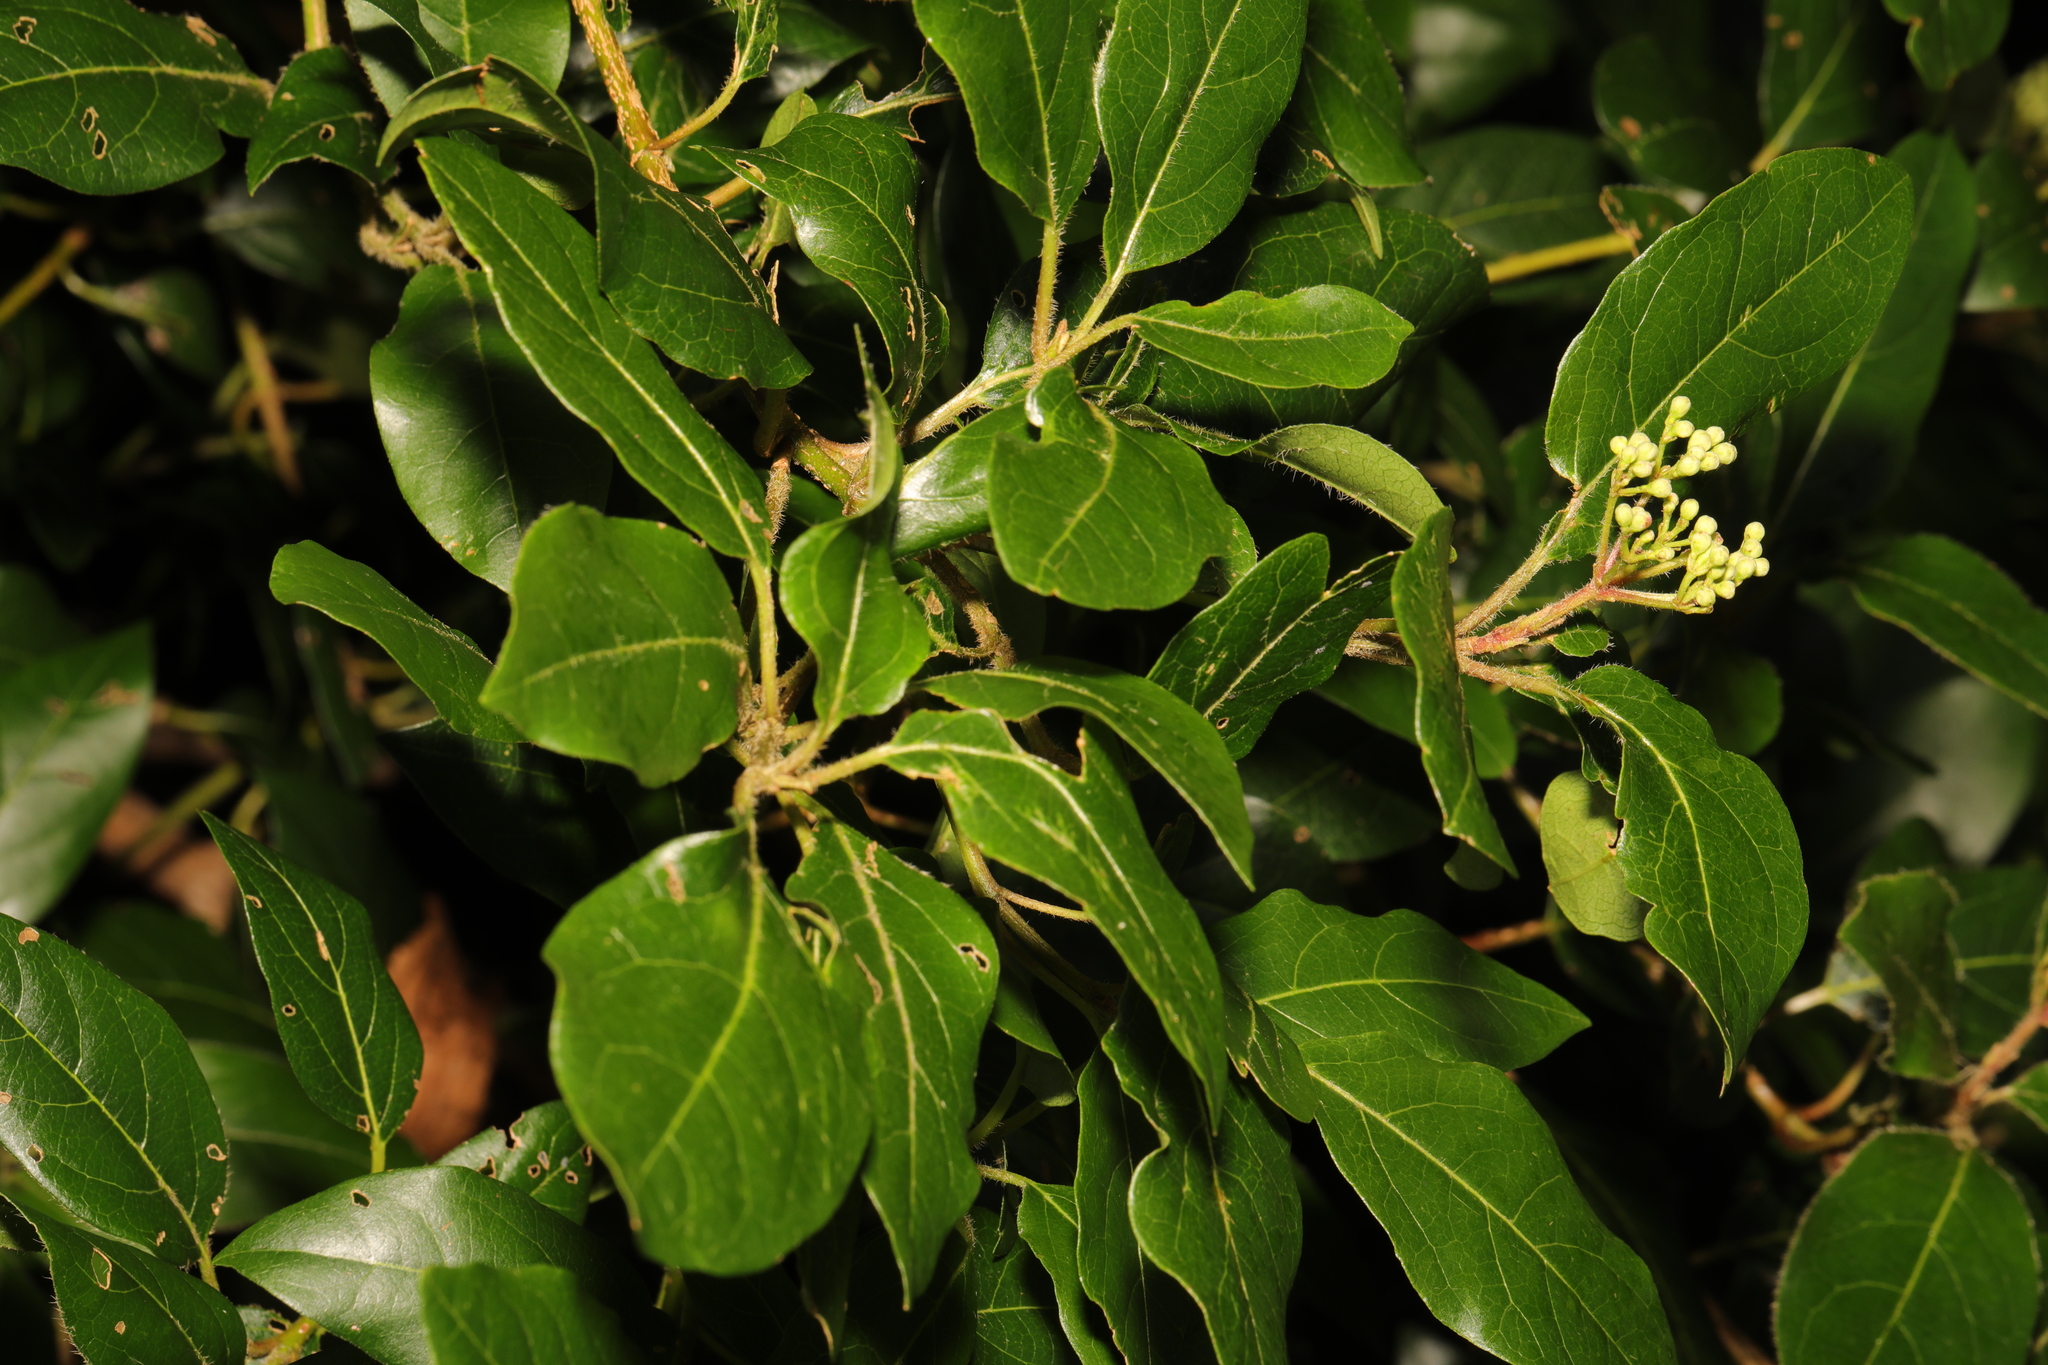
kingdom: Plantae
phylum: Tracheophyta
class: Magnoliopsida
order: Dipsacales
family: Viburnaceae
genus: Viburnum
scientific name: Viburnum tinus
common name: Laurustinus
